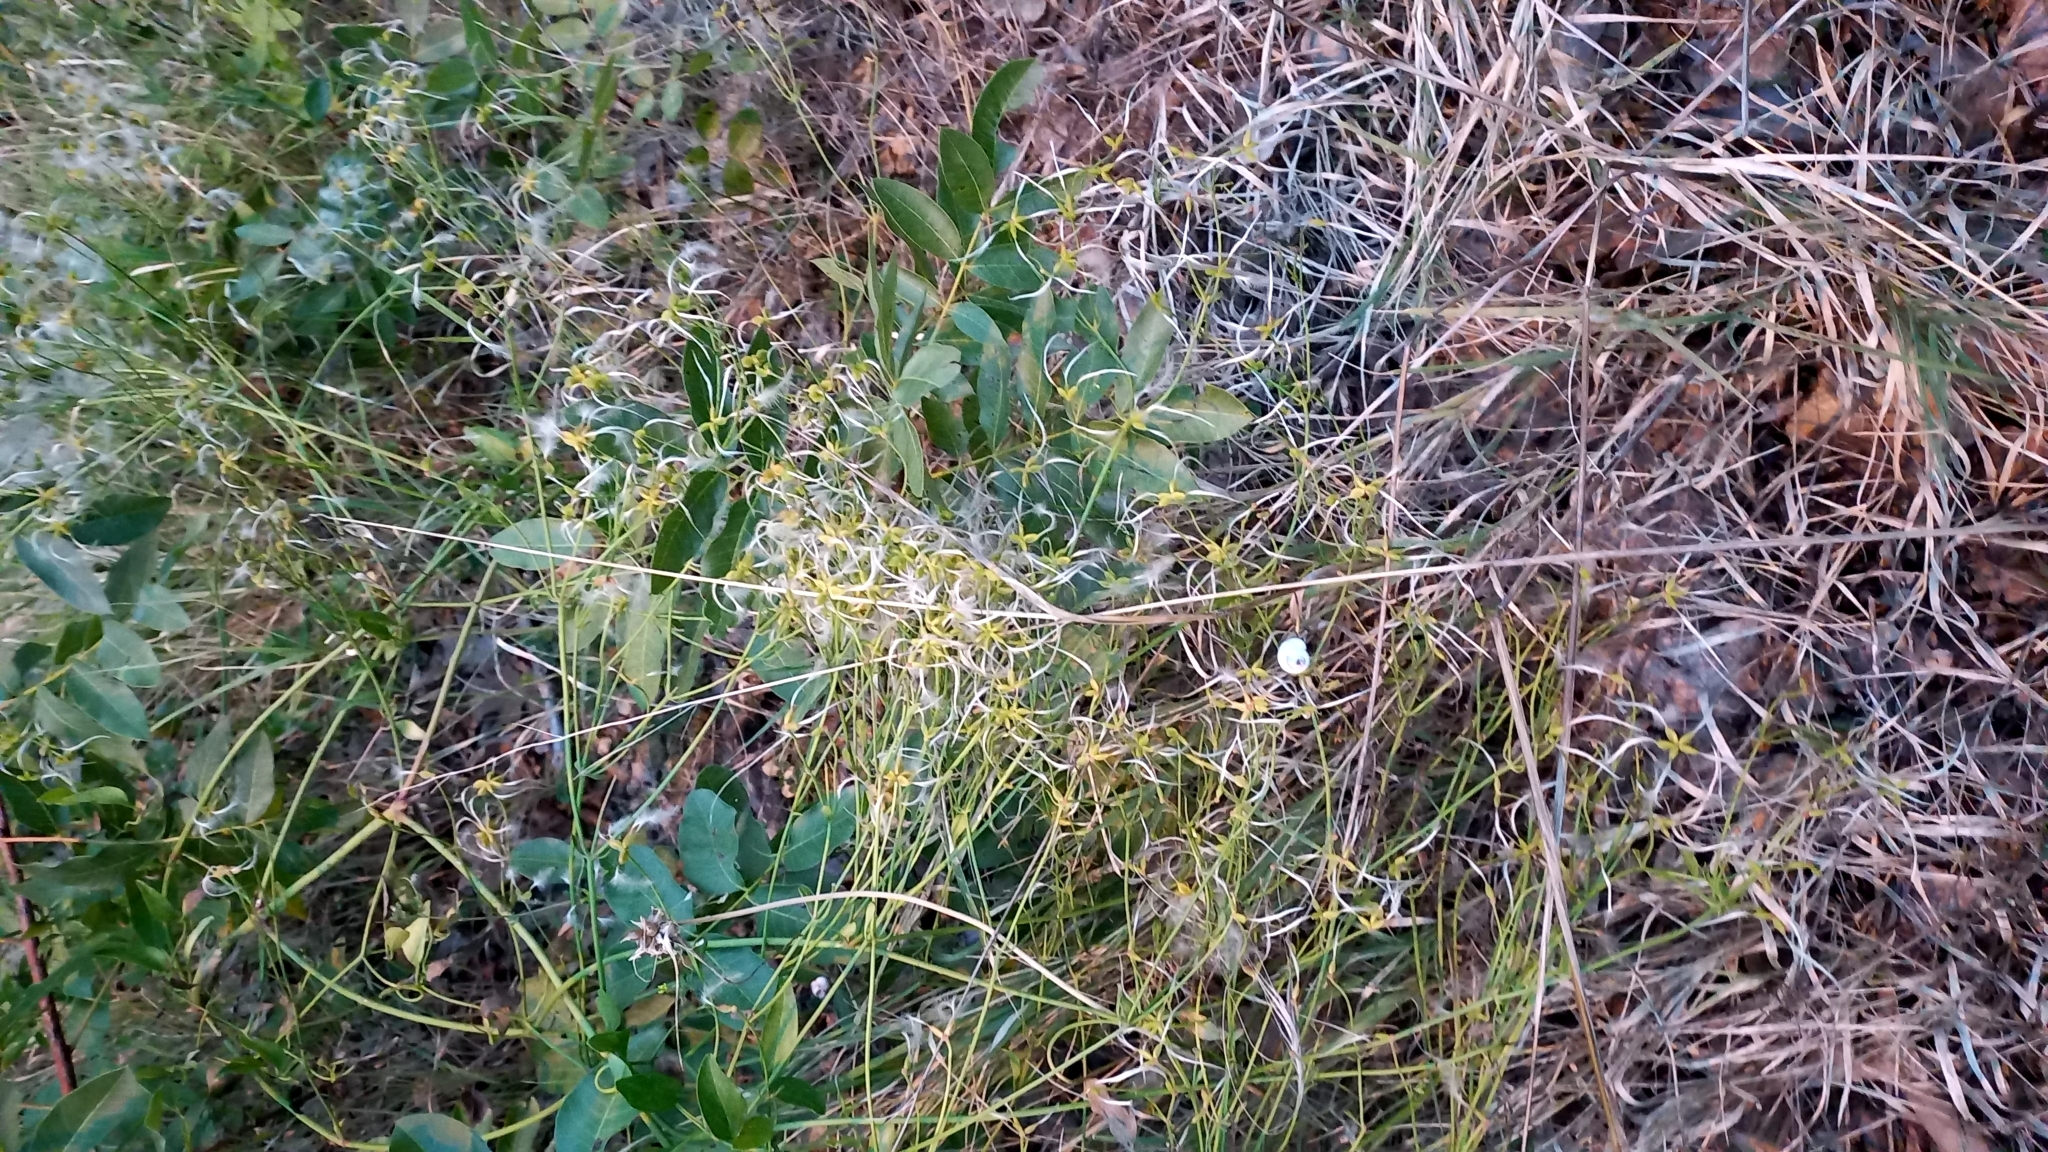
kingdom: Plantae
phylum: Tracheophyta
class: Magnoliopsida
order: Ranunculales
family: Ranunculaceae
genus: Clematis
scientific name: Clematis flammula
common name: Virgin's-bower
